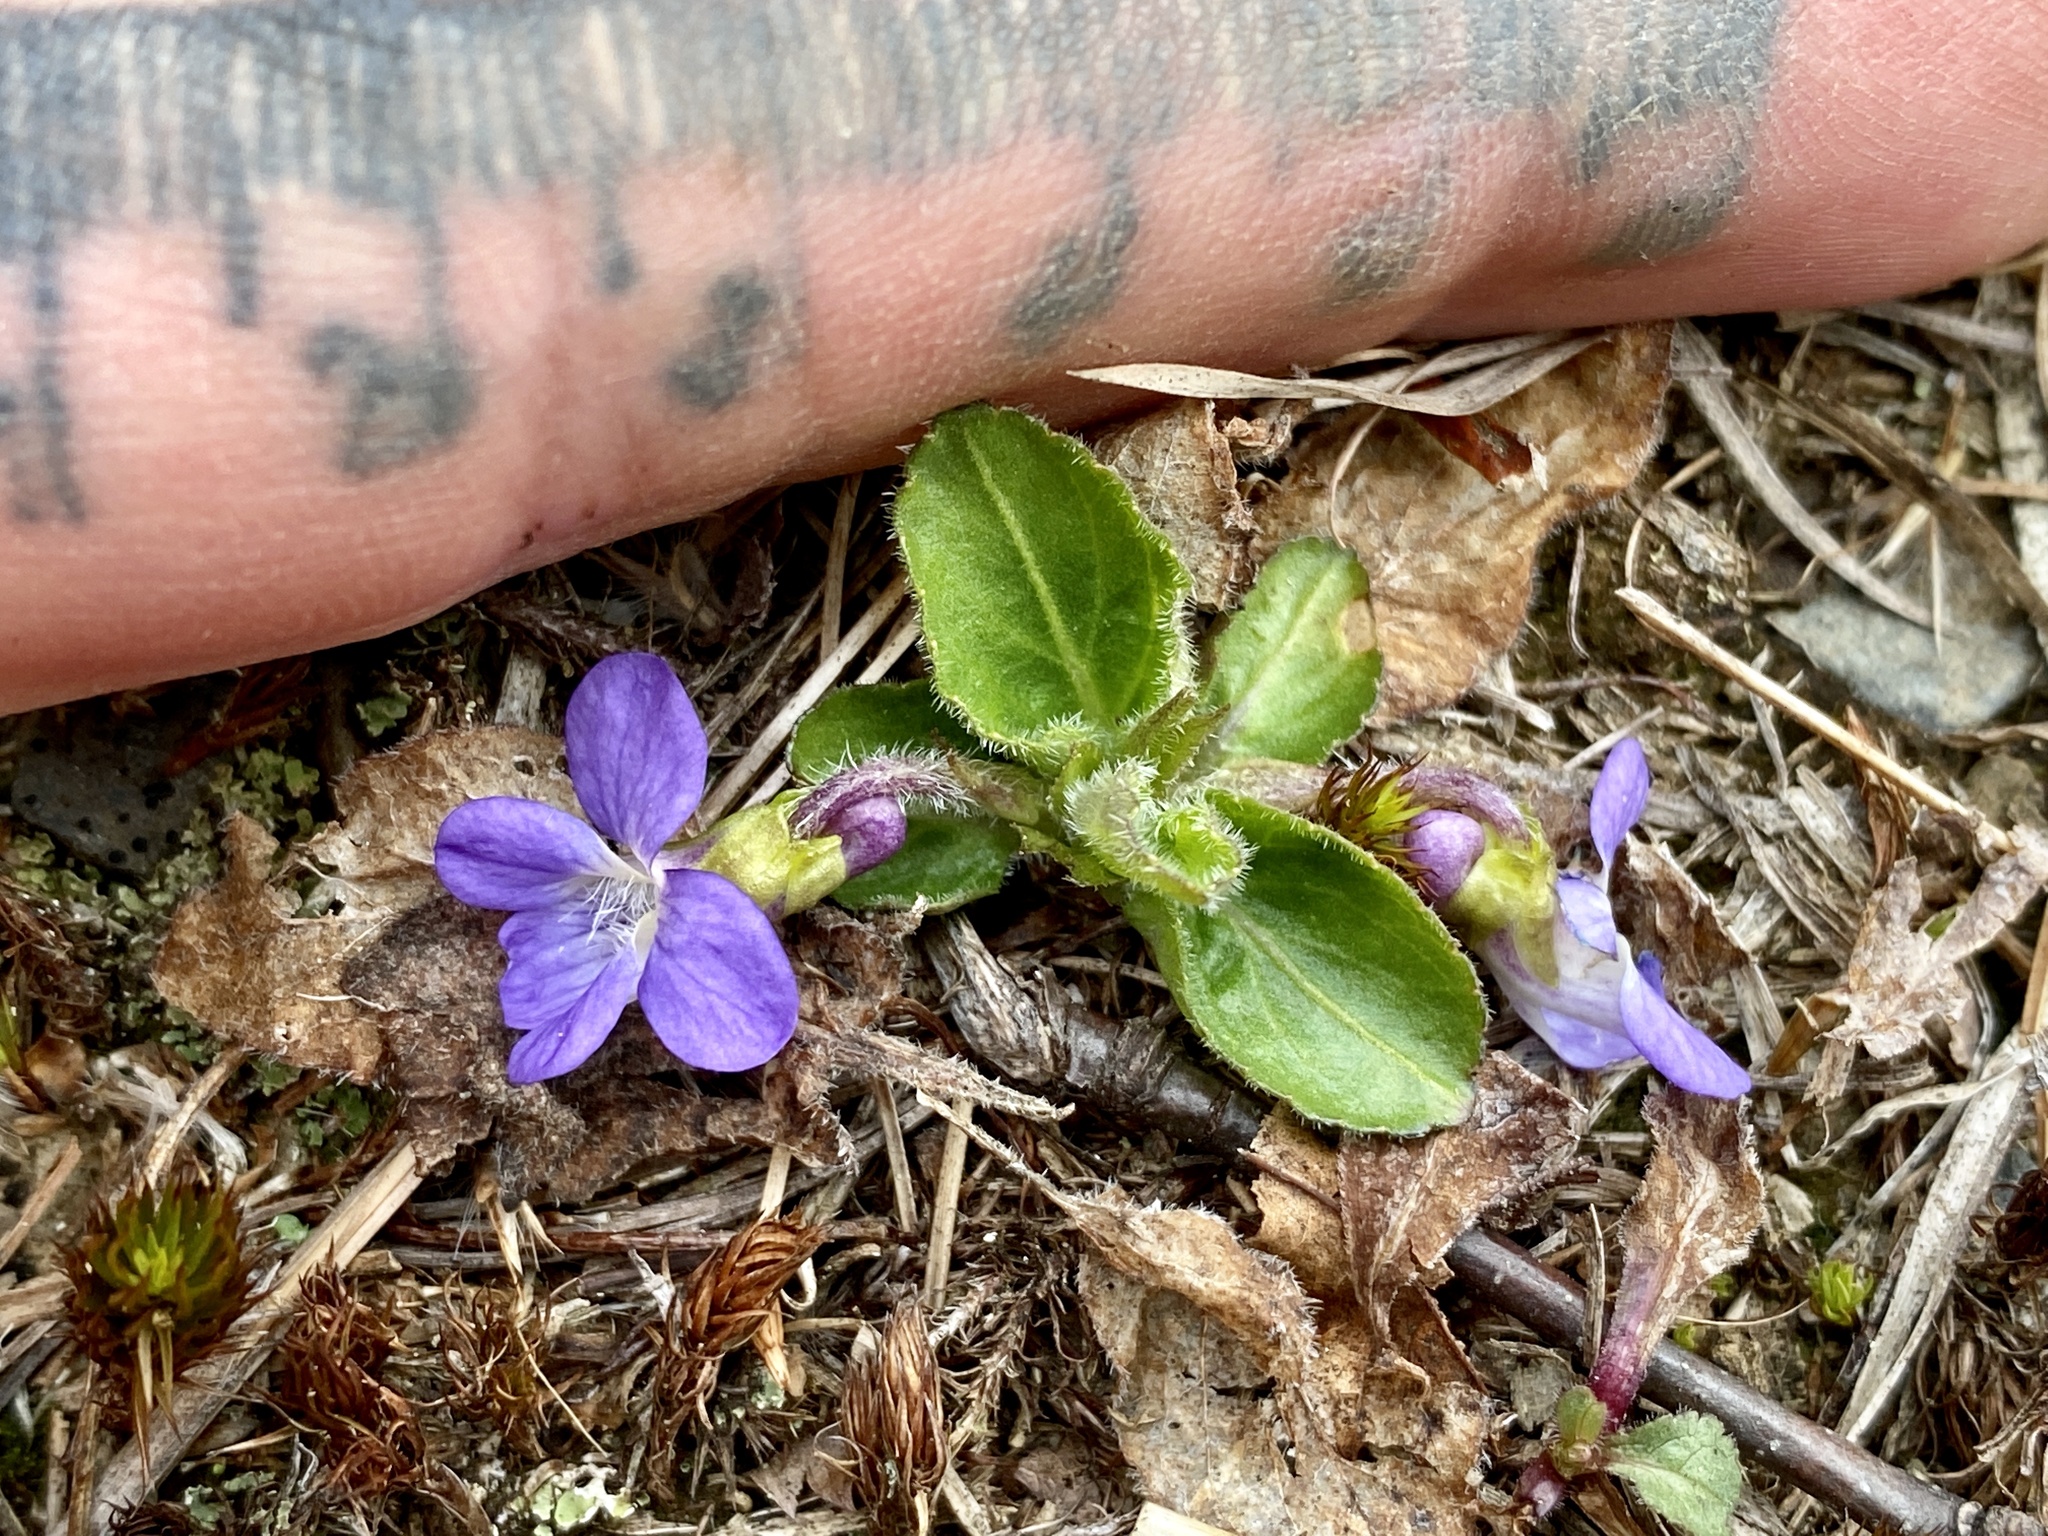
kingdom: Plantae
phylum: Tracheophyta
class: Magnoliopsida
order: Malpighiales
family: Violaceae
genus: Viola
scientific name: Viola fimbriatula
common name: Sand violet
